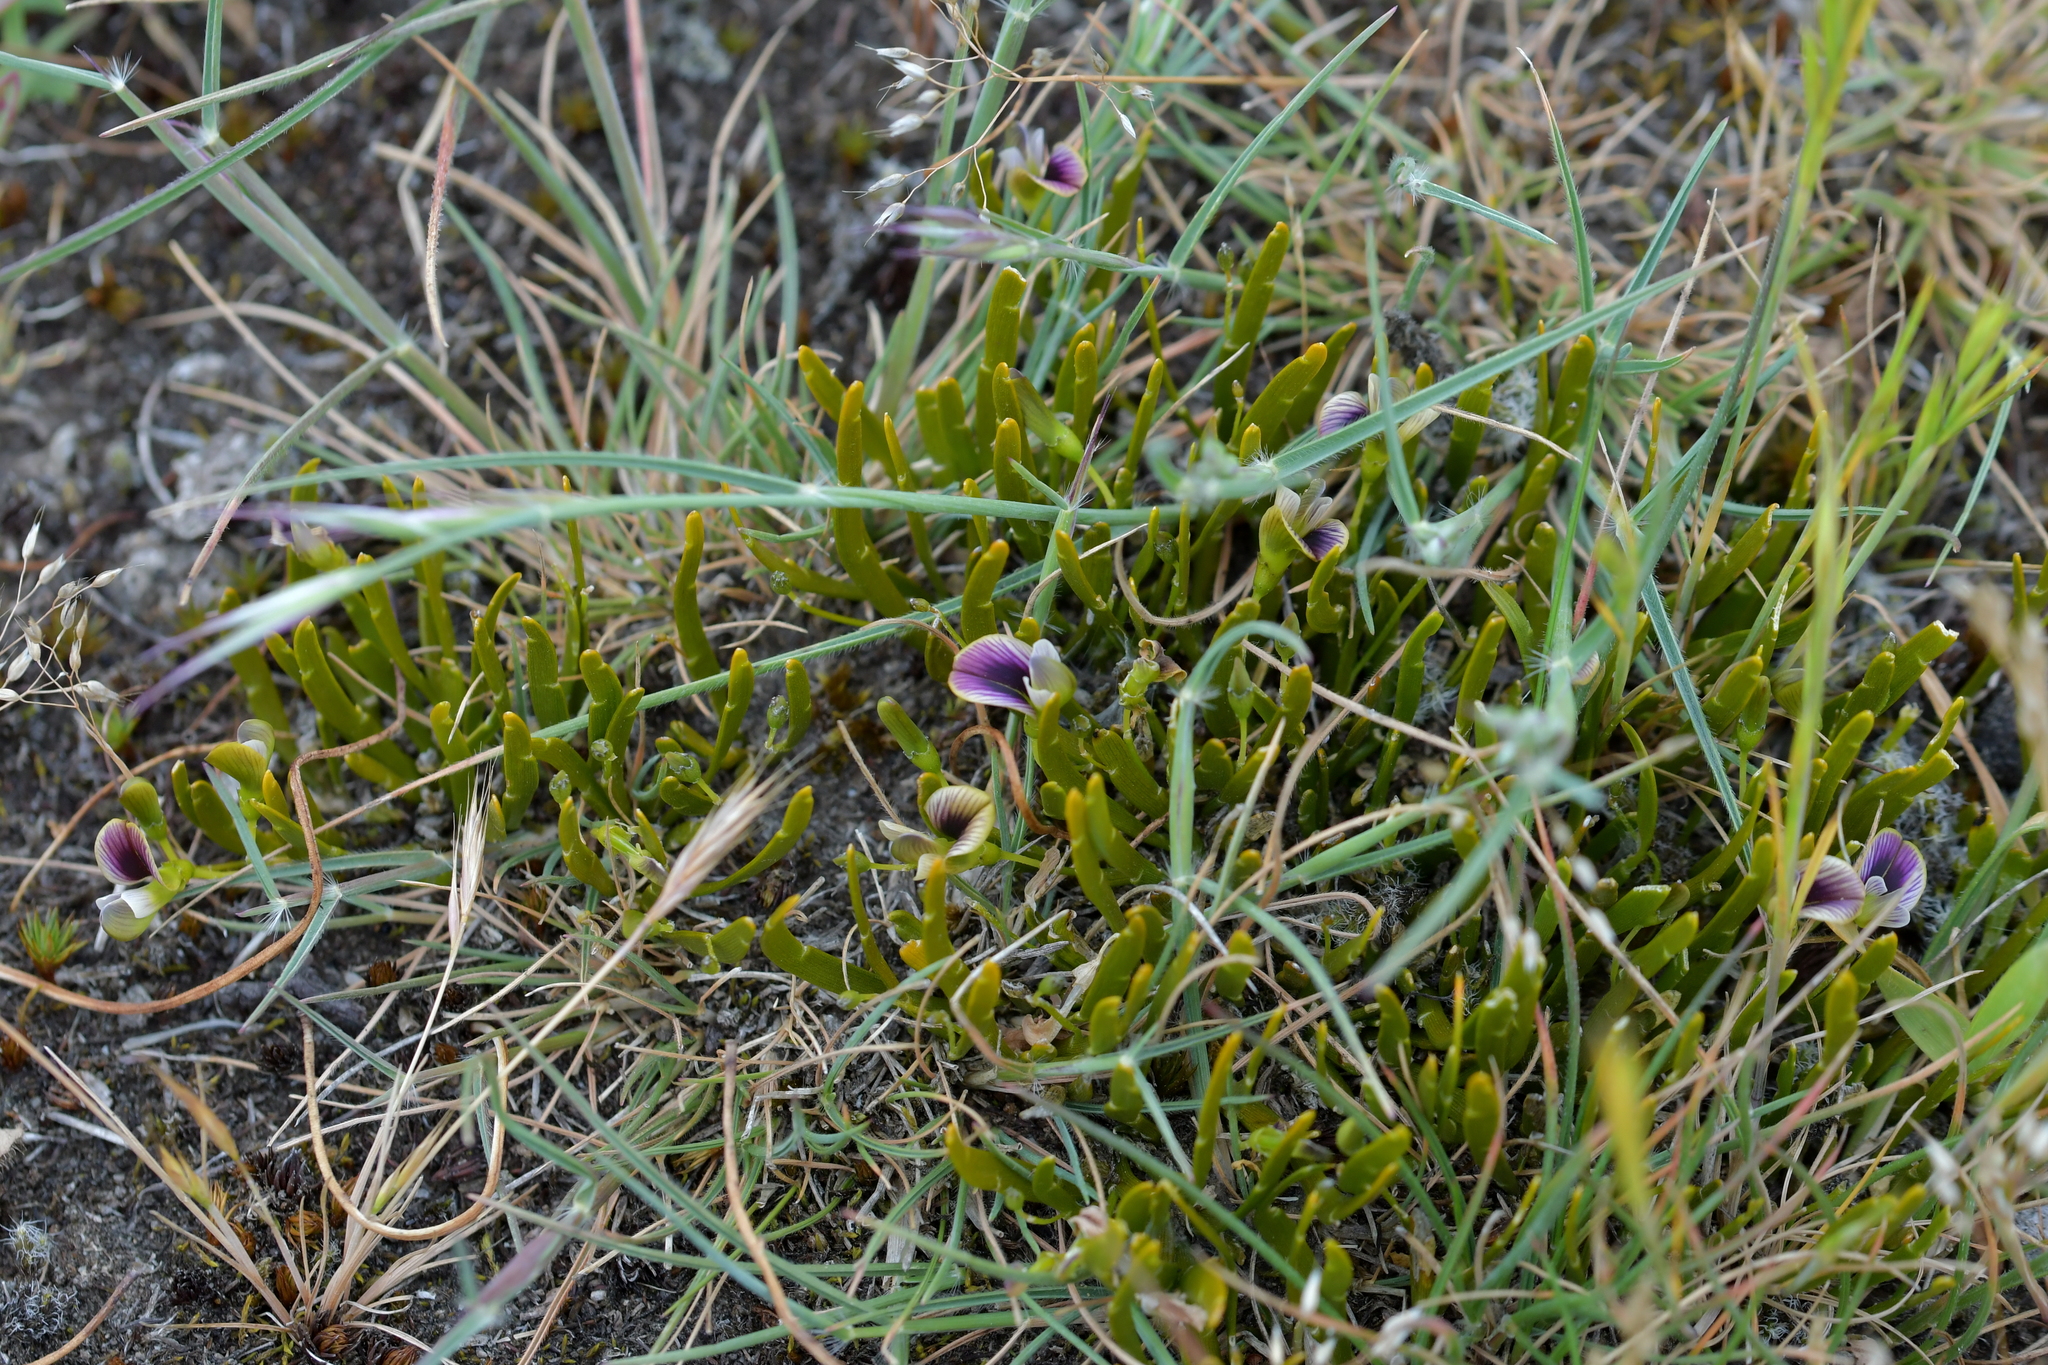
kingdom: Plantae
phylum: Tracheophyta
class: Magnoliopsida
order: Fabales
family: Fabaceae
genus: Carmichaelia
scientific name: Carmichaelia corrugata
